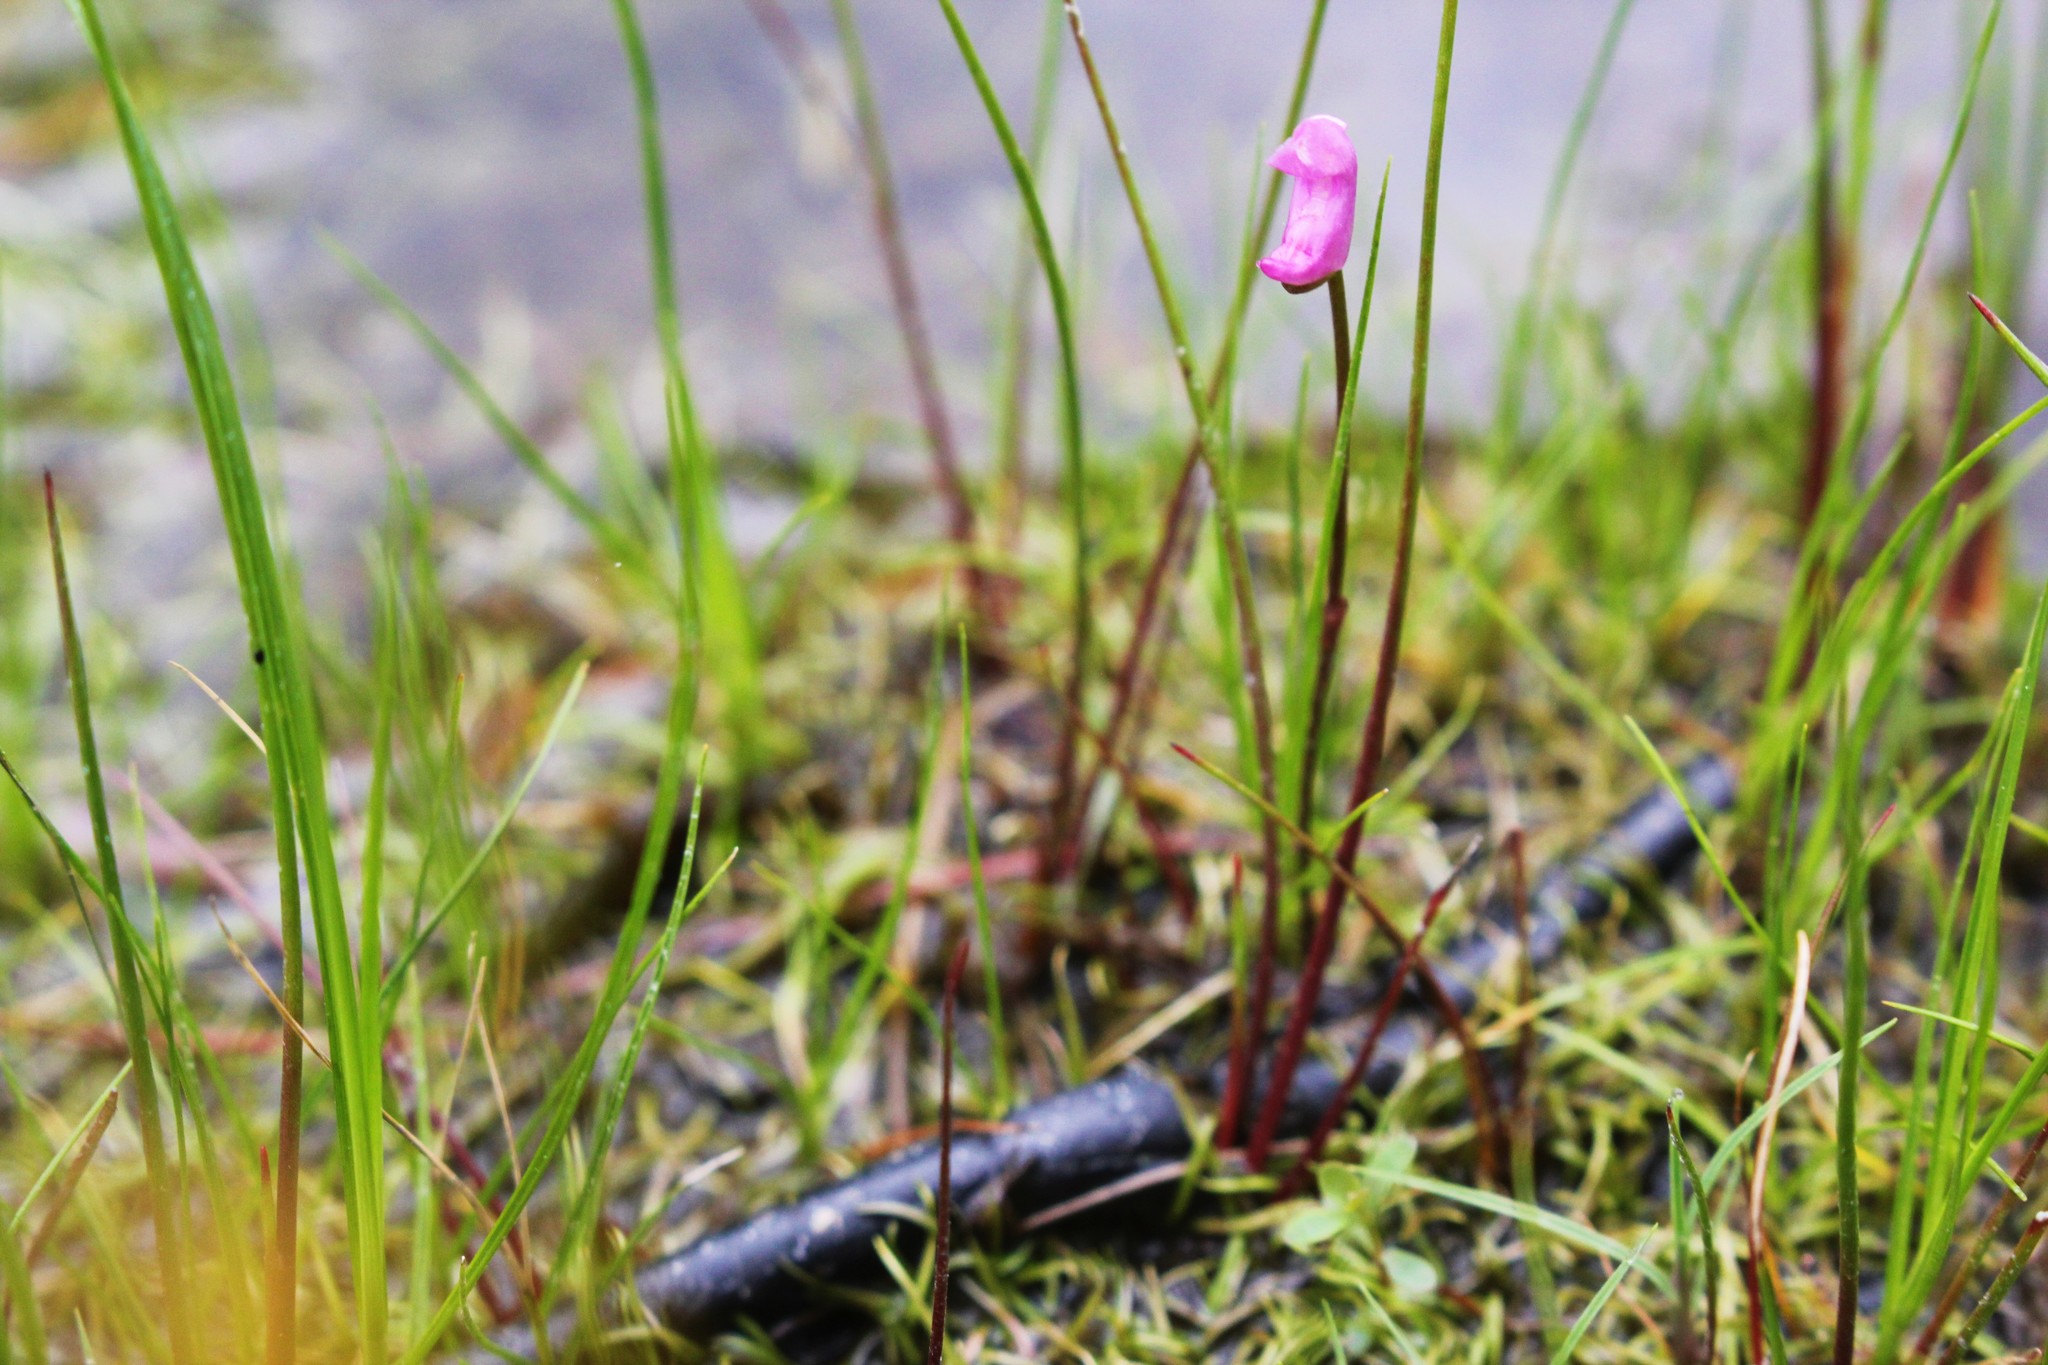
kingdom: Plantae
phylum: Tracheophyta
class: Magnoliopsida
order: Lamiales
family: Lentibulariaceae
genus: Utricularia
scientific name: Utricularia resupinata
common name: Northeastern bladderwort
